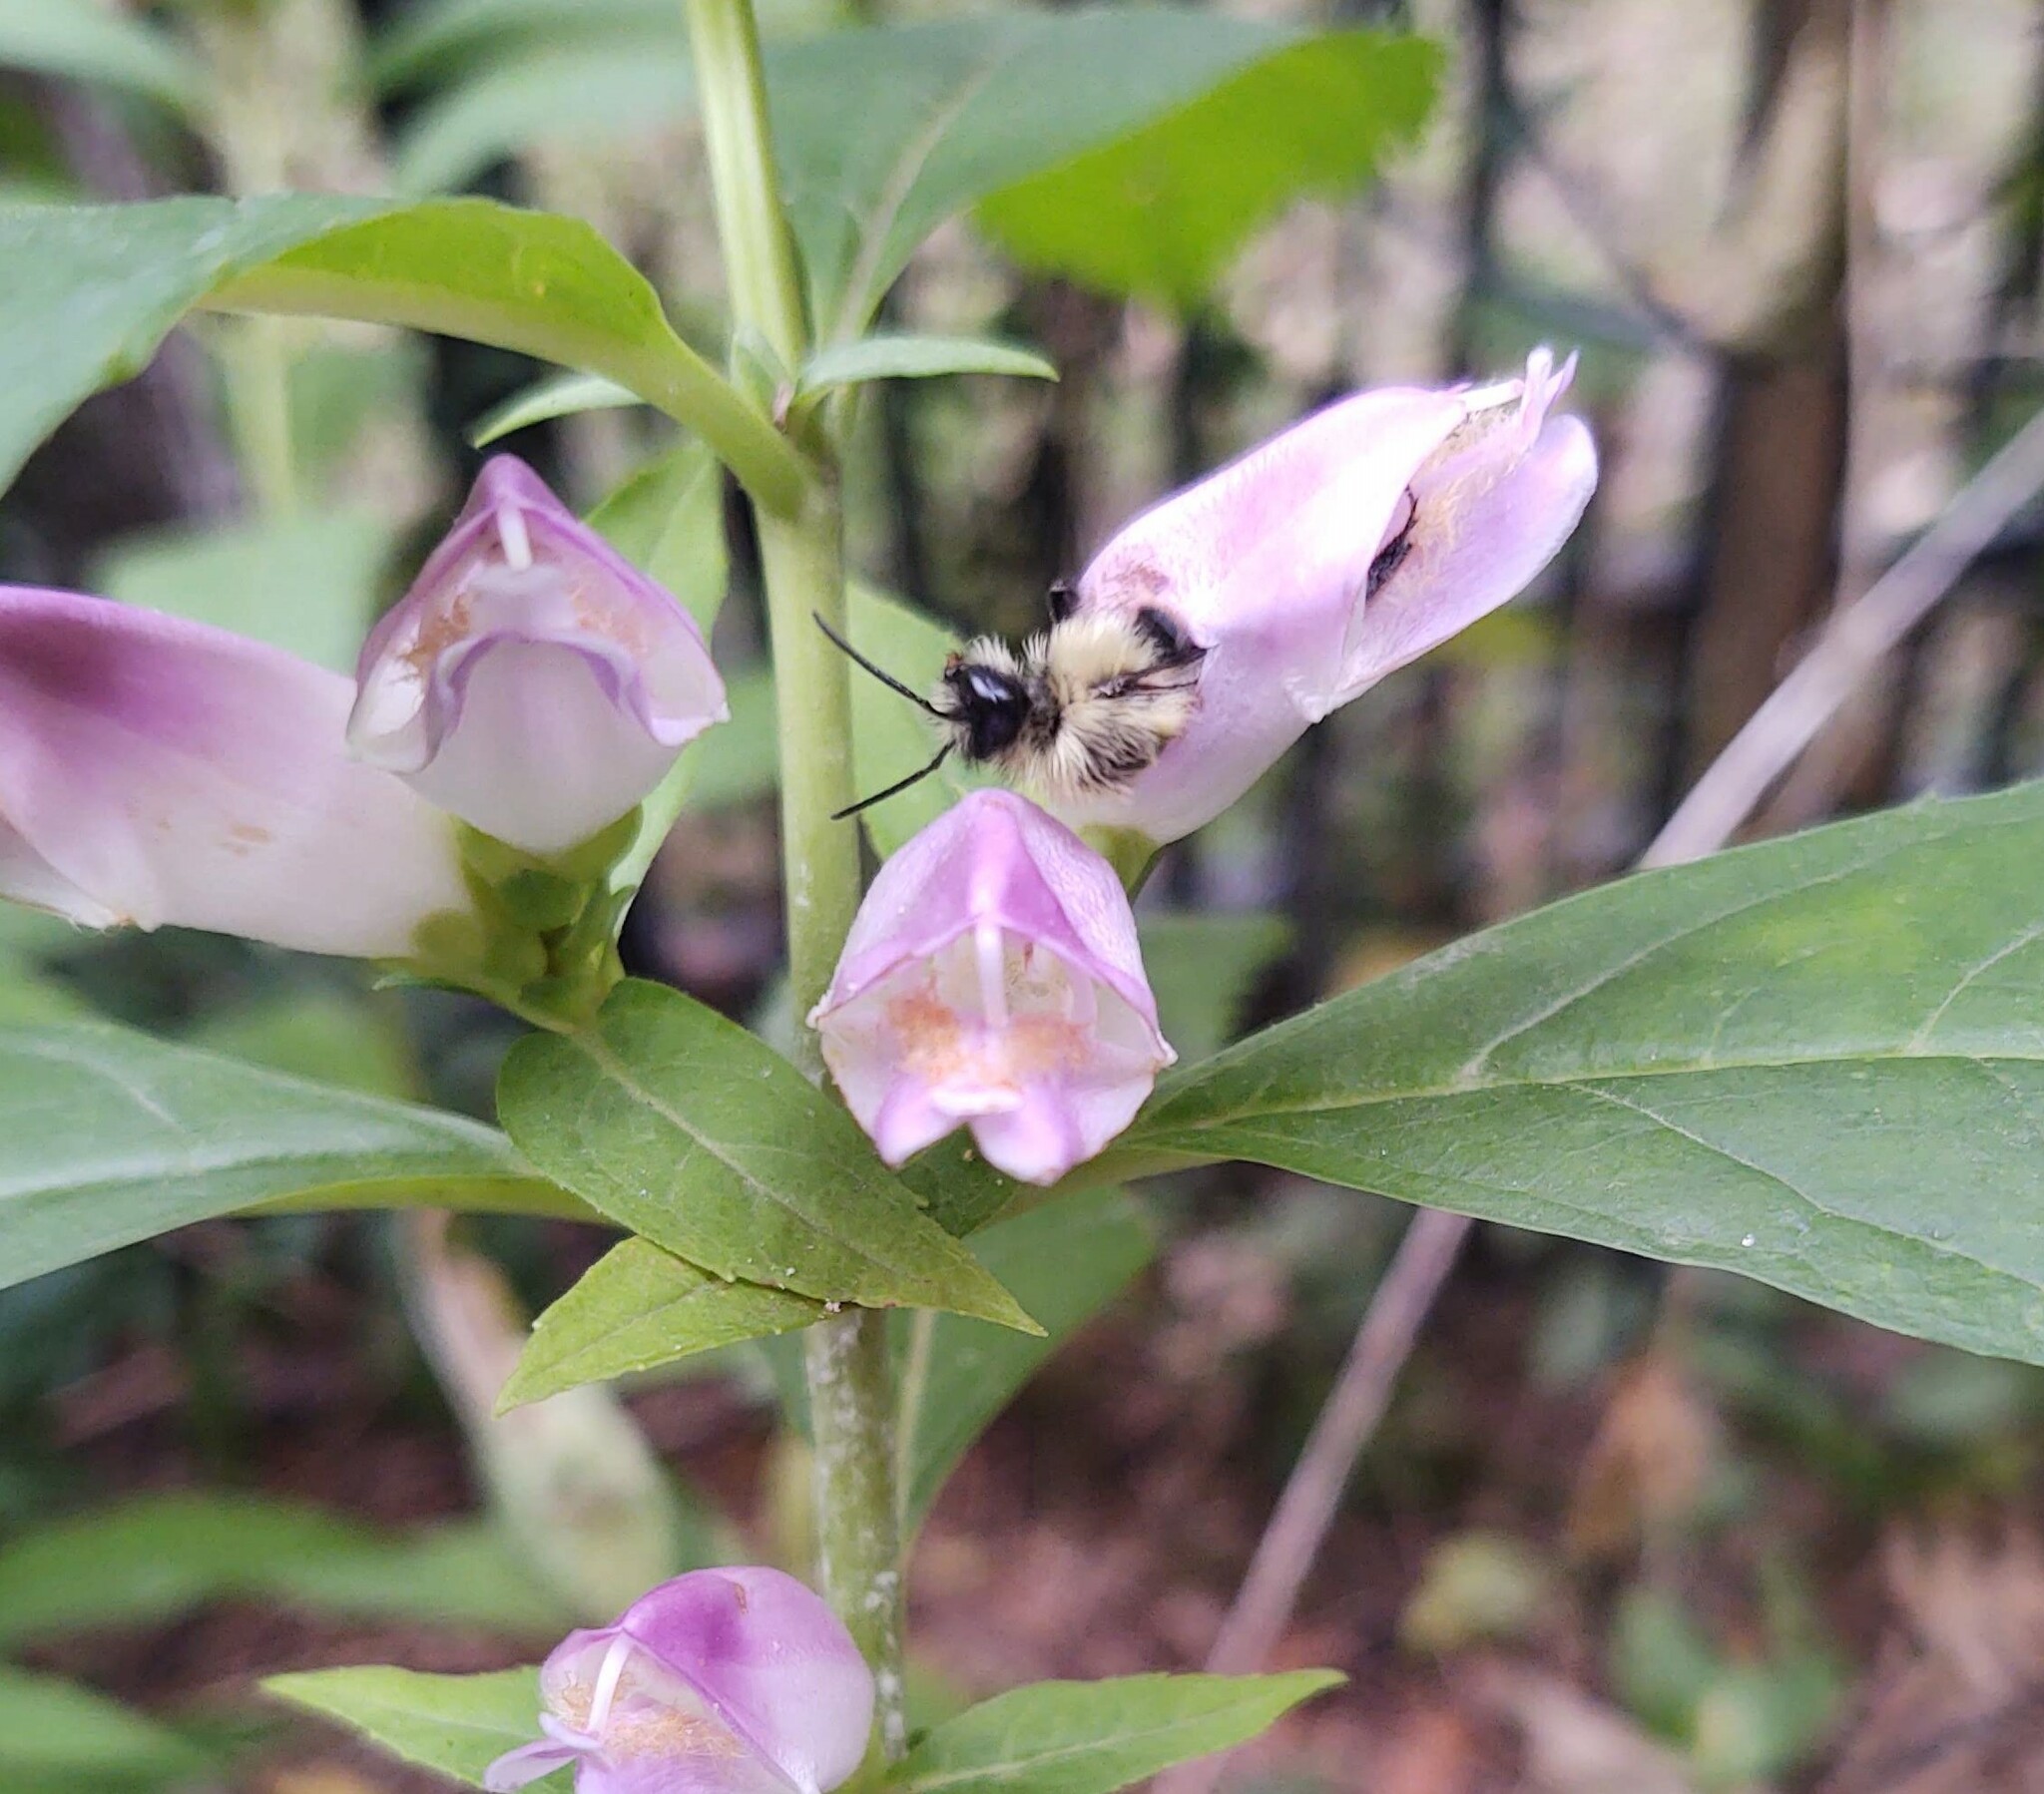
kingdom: Animalia
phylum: Arthropoda
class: Insecta
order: Hymenoptera
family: Apidae
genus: Bombus
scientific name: Bombus impatiens
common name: Common eastern bumble bee
